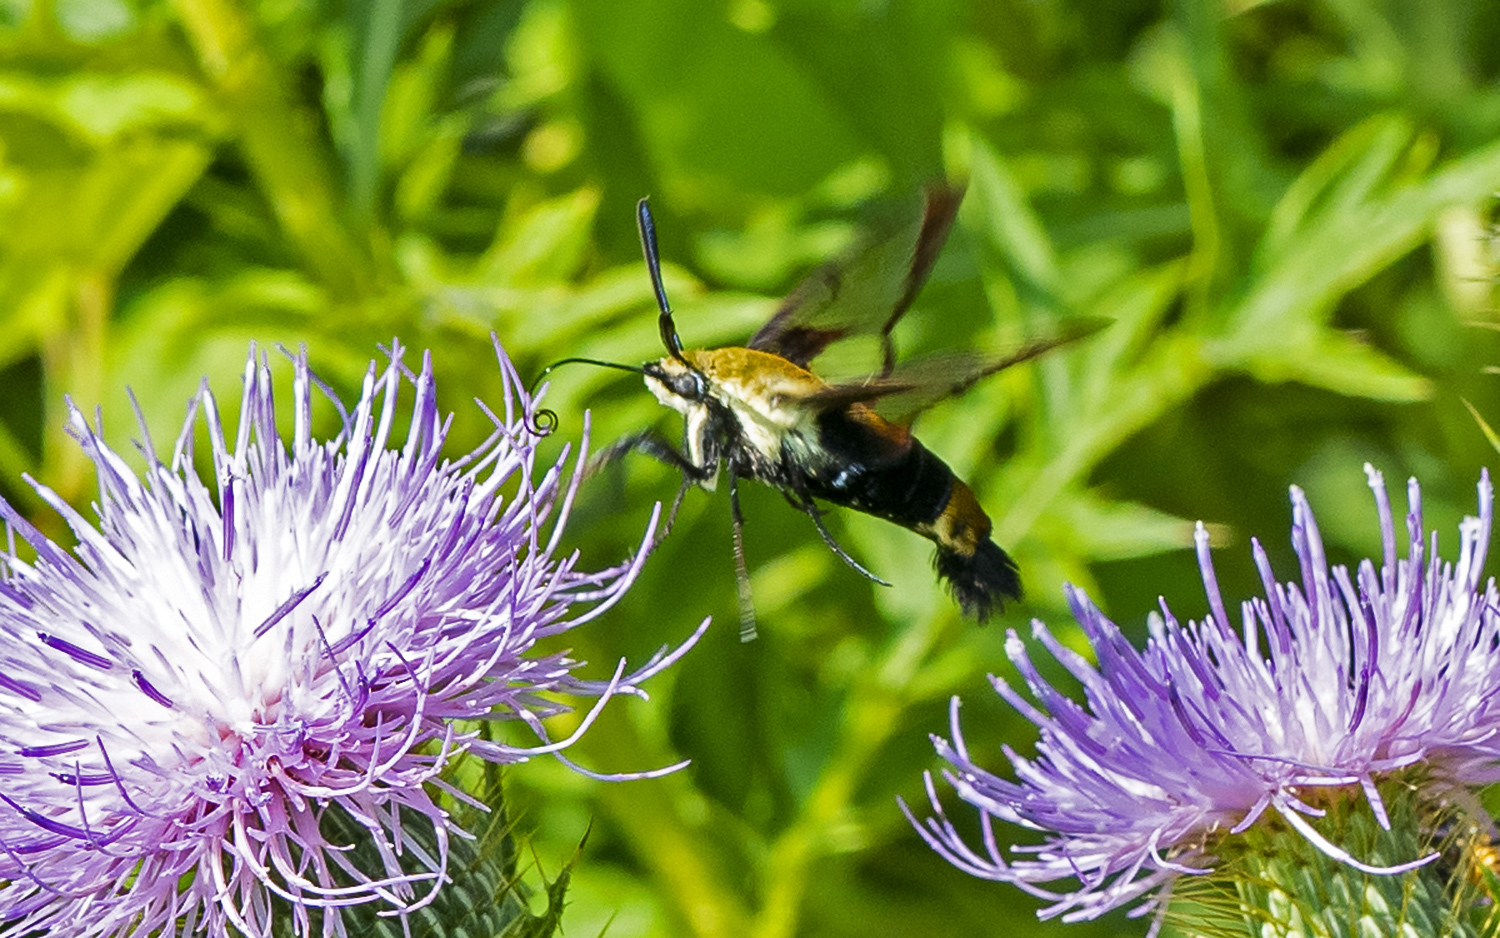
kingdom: Animalia
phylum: Arthropoda
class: Insecta
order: Lepidoptera
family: Sphingidae
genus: Hemaris
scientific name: Hemaris diffinis
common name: Bumblebee moth
